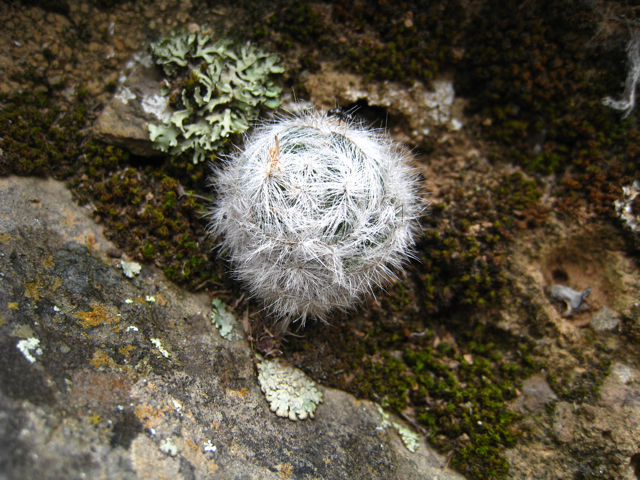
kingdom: Plantae
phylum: Tracheophyta
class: Magnoliopsida
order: Saxifragales
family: Crassulaceae
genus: Crassula
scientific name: Crassula barbata
